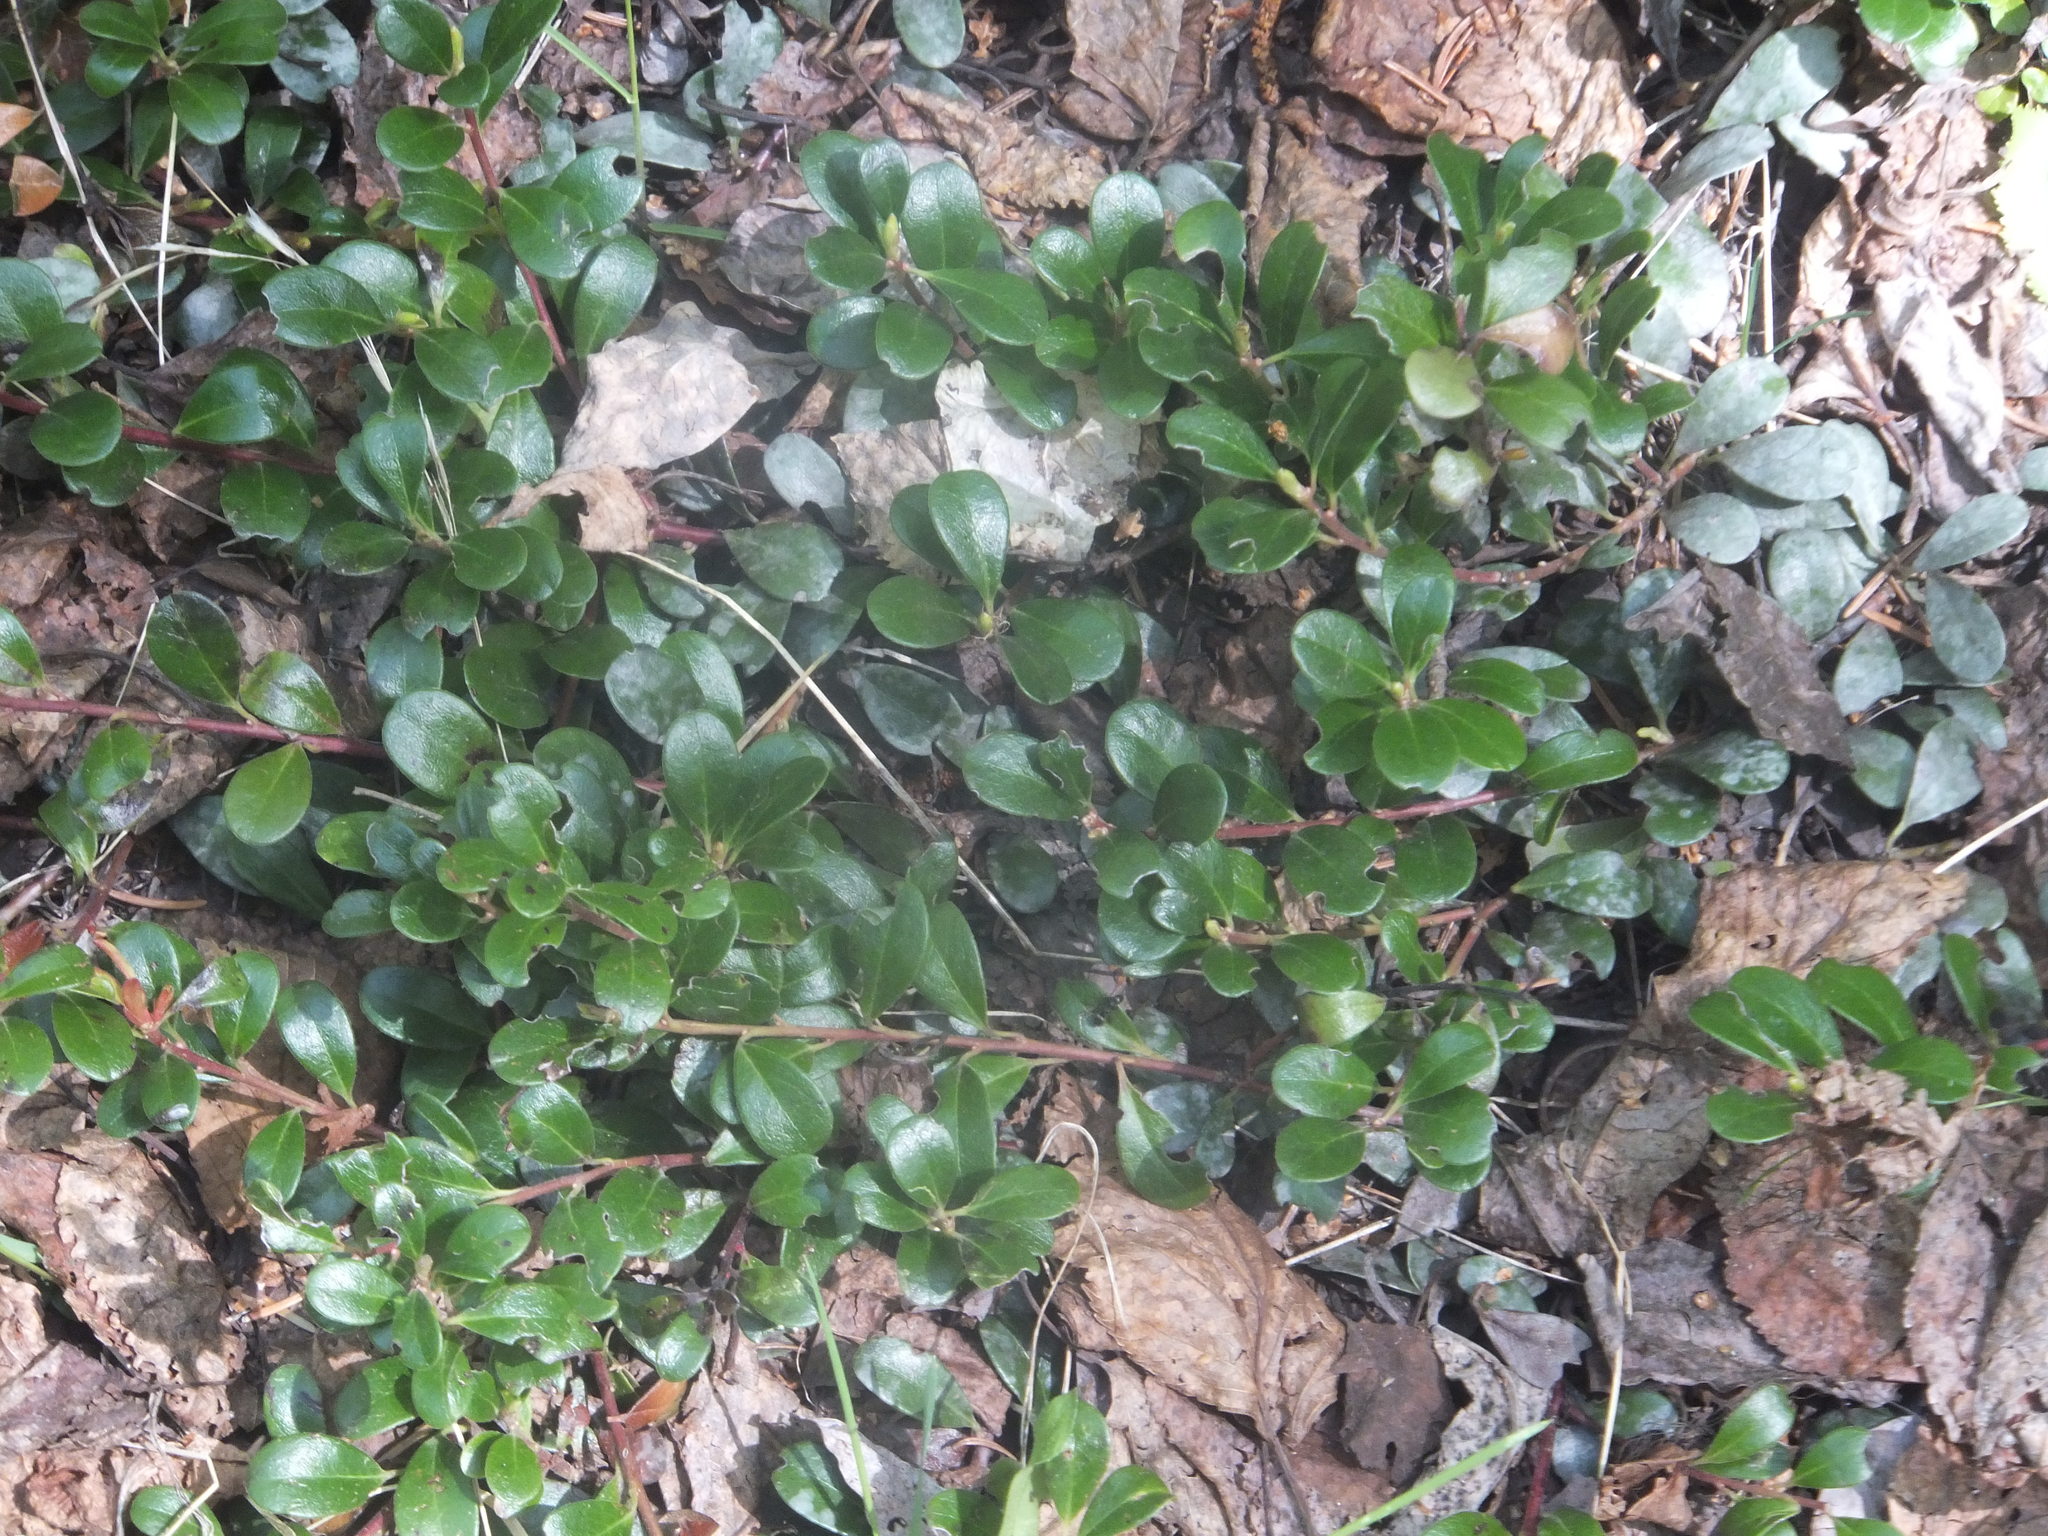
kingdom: Plantae
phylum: Tracheophyta
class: Magnoliopsida
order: Ericales
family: Ericaceae
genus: Arctostaphylos
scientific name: Arctostaphylos uva-ursi
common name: Bearberry
